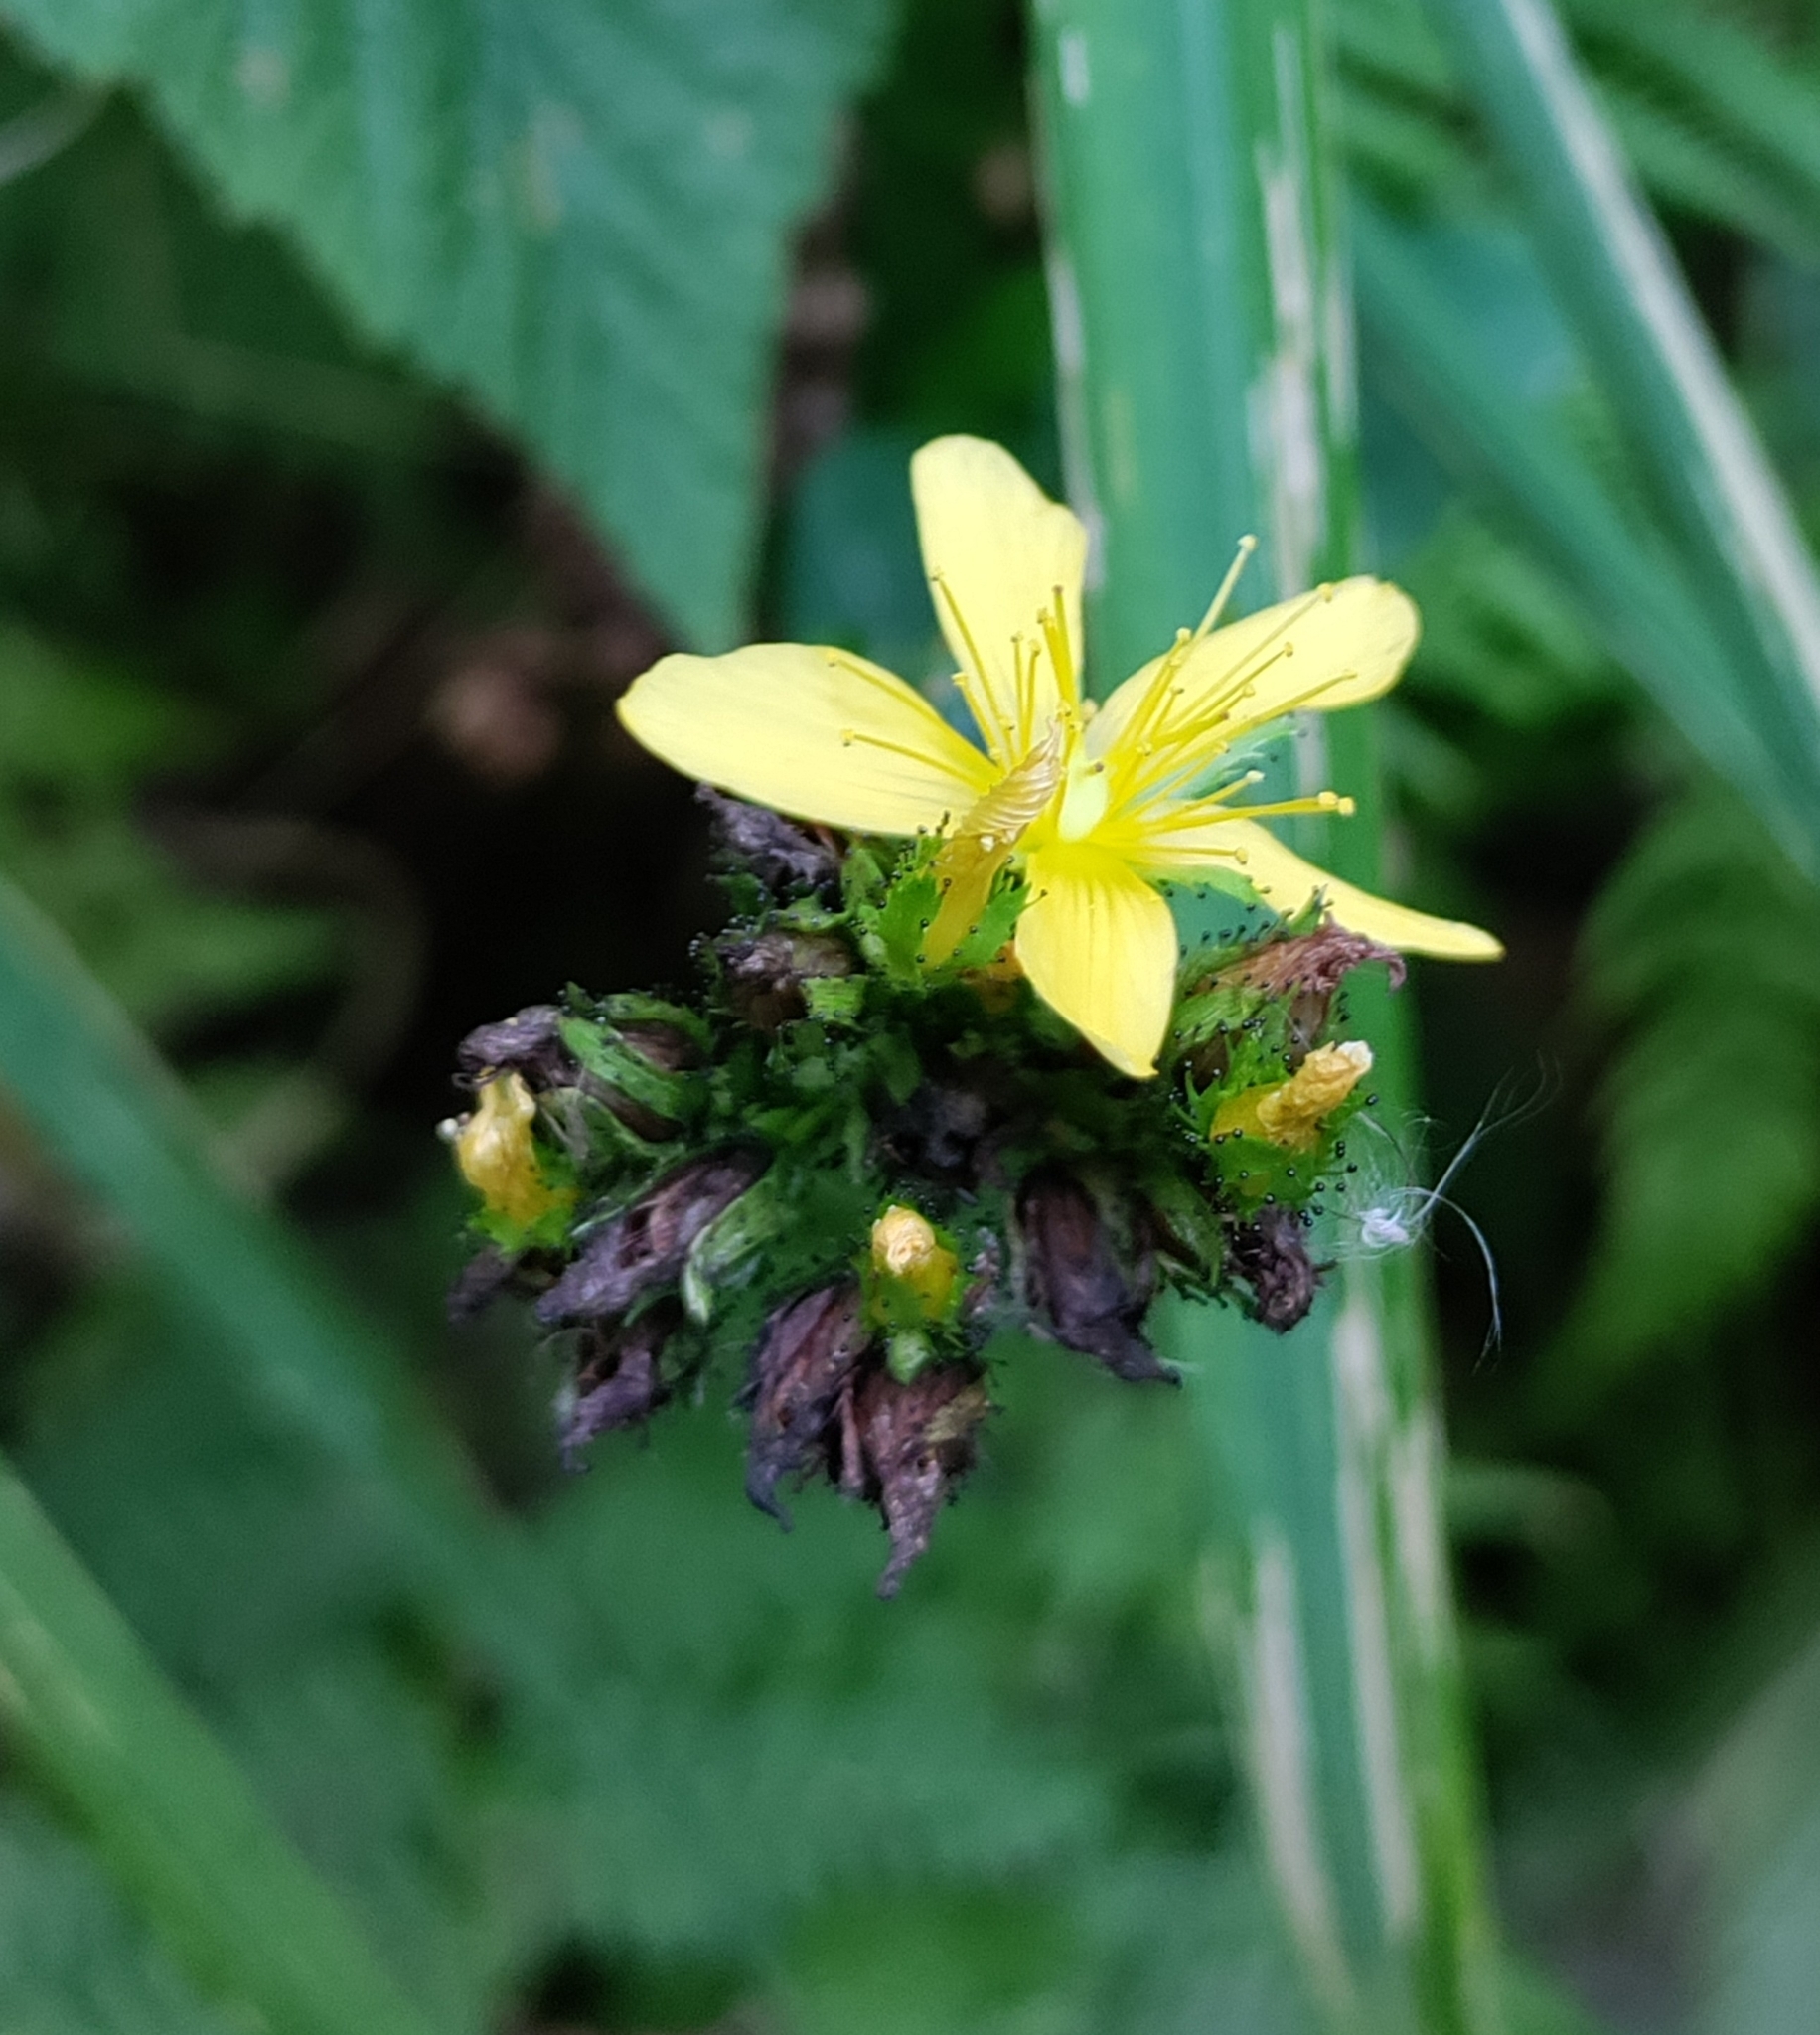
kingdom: Plantae
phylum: Tracheophyta
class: Magnoliopsida
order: Malpighiales
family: Hypericaceae
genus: Hypericum
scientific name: Hypericum montanum
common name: Pale st. john's-wort
